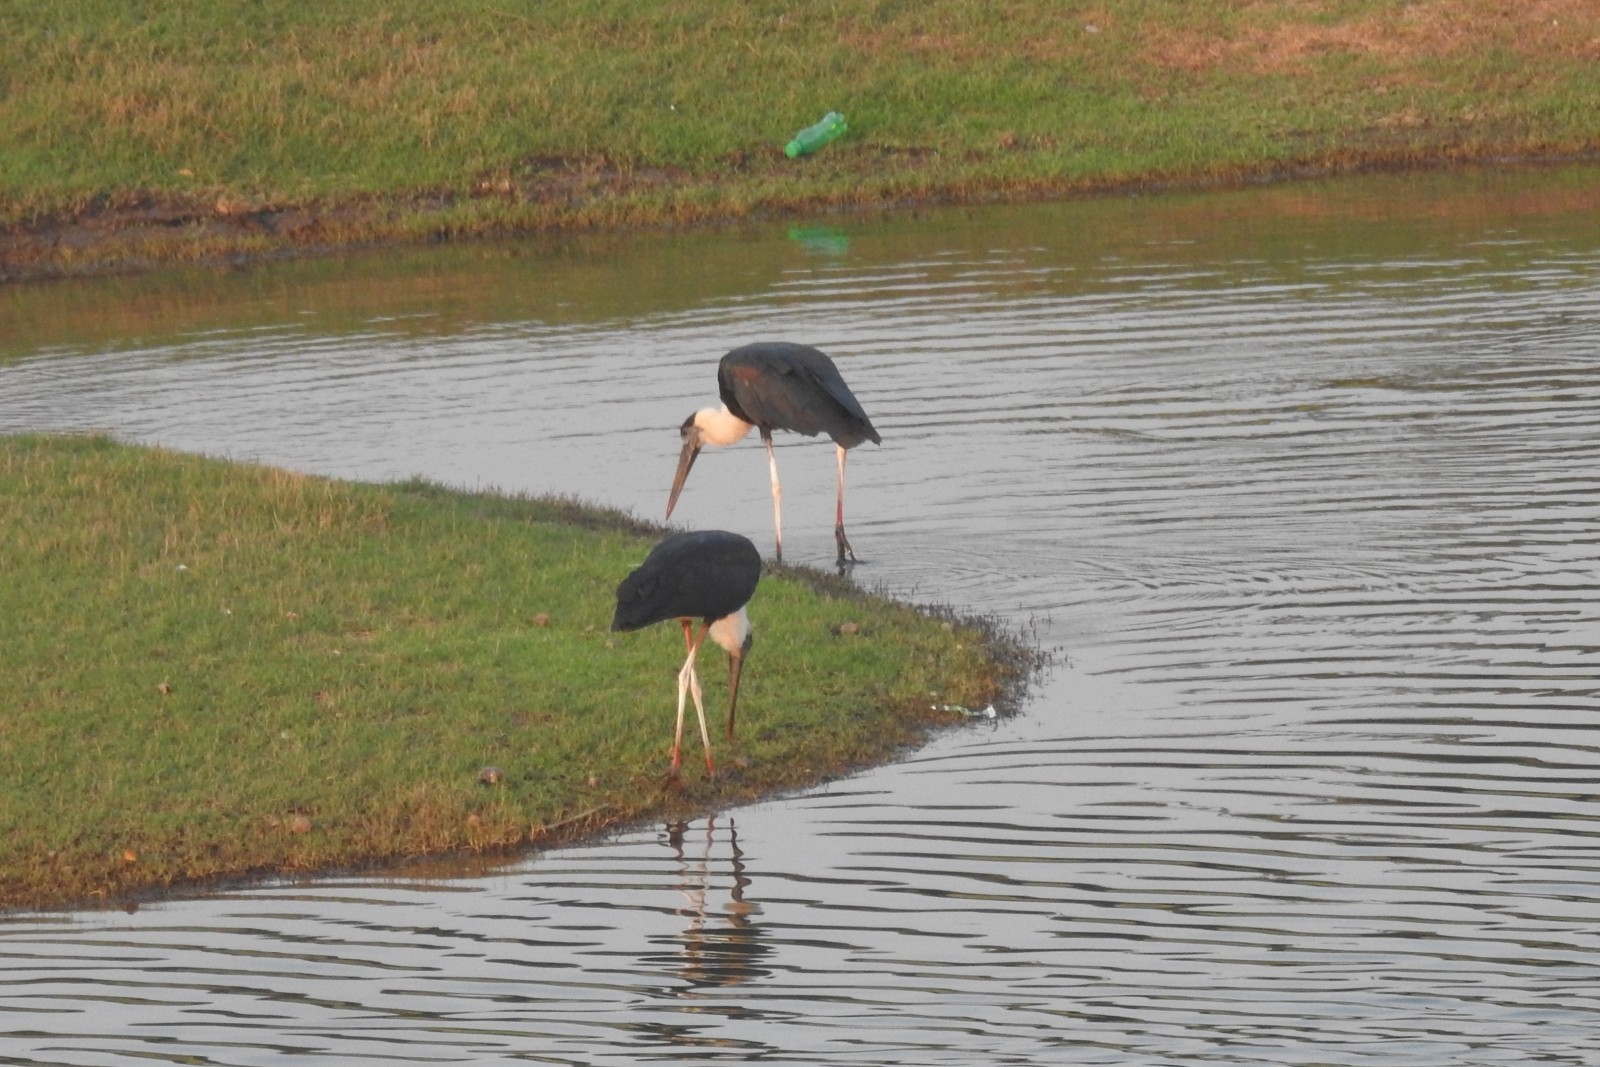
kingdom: Animalia
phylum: Chordata
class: Aves
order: Ciconiiformes
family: Ciconiidae
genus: Ciconia
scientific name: Ciconia episcopus
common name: Woolly-necked stork
